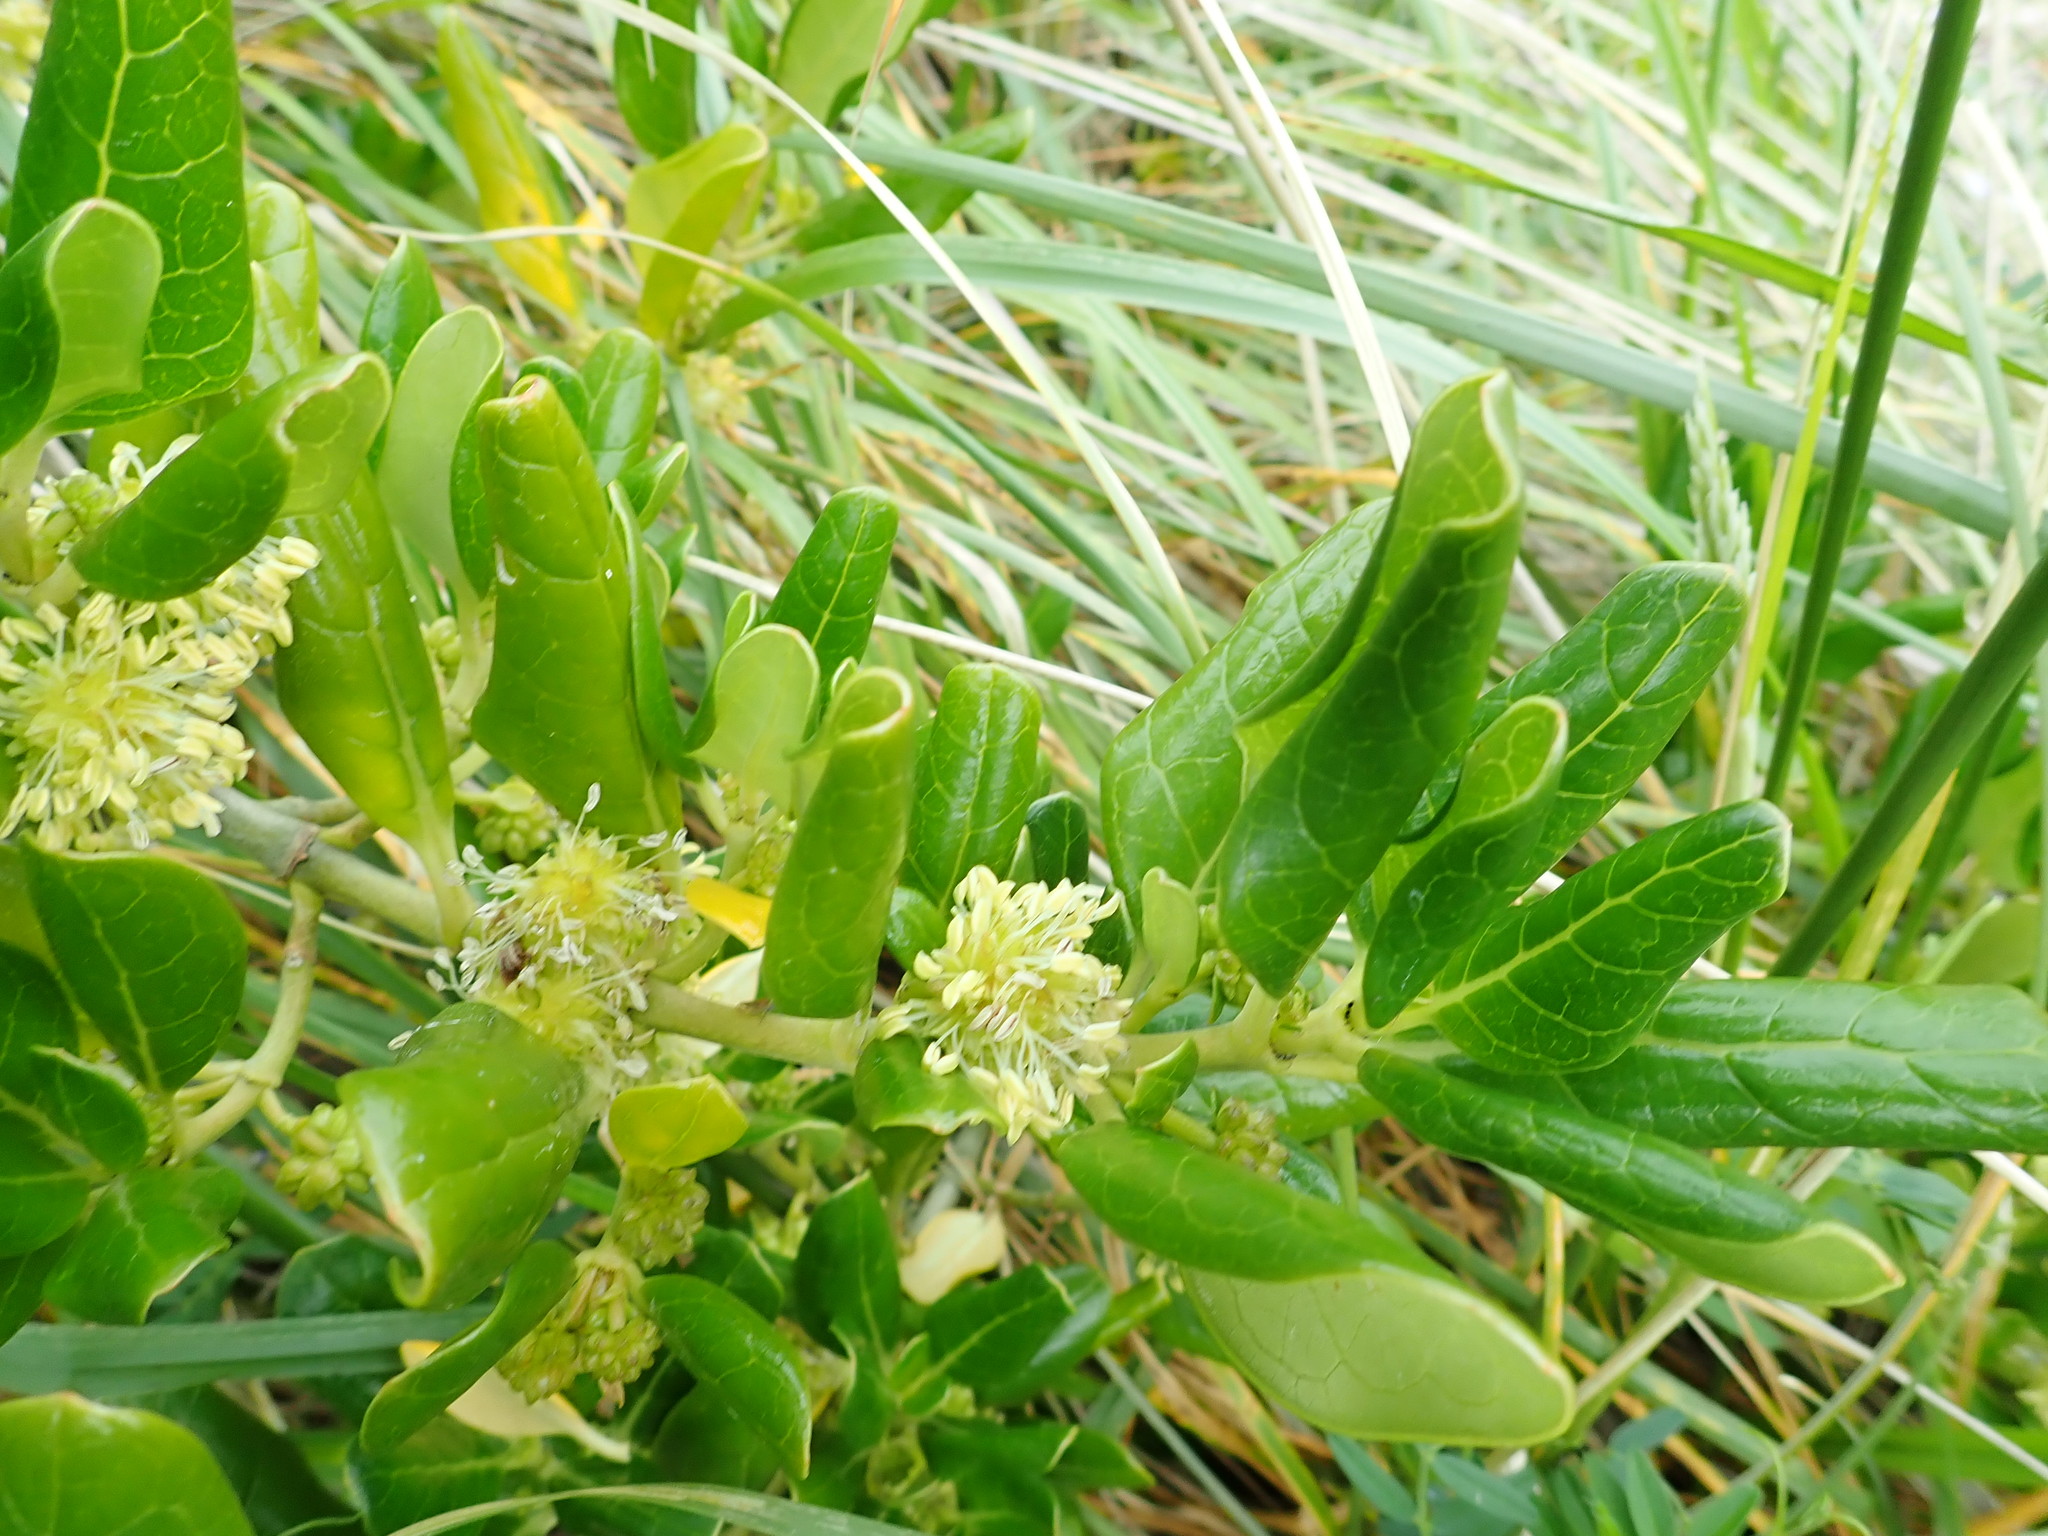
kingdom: Plantae
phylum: Tracheophyta
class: Magnoliopsida
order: Gentianales
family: Rubiaceae
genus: Coprosma
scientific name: Coprosma repens
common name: Tree bedstraw
